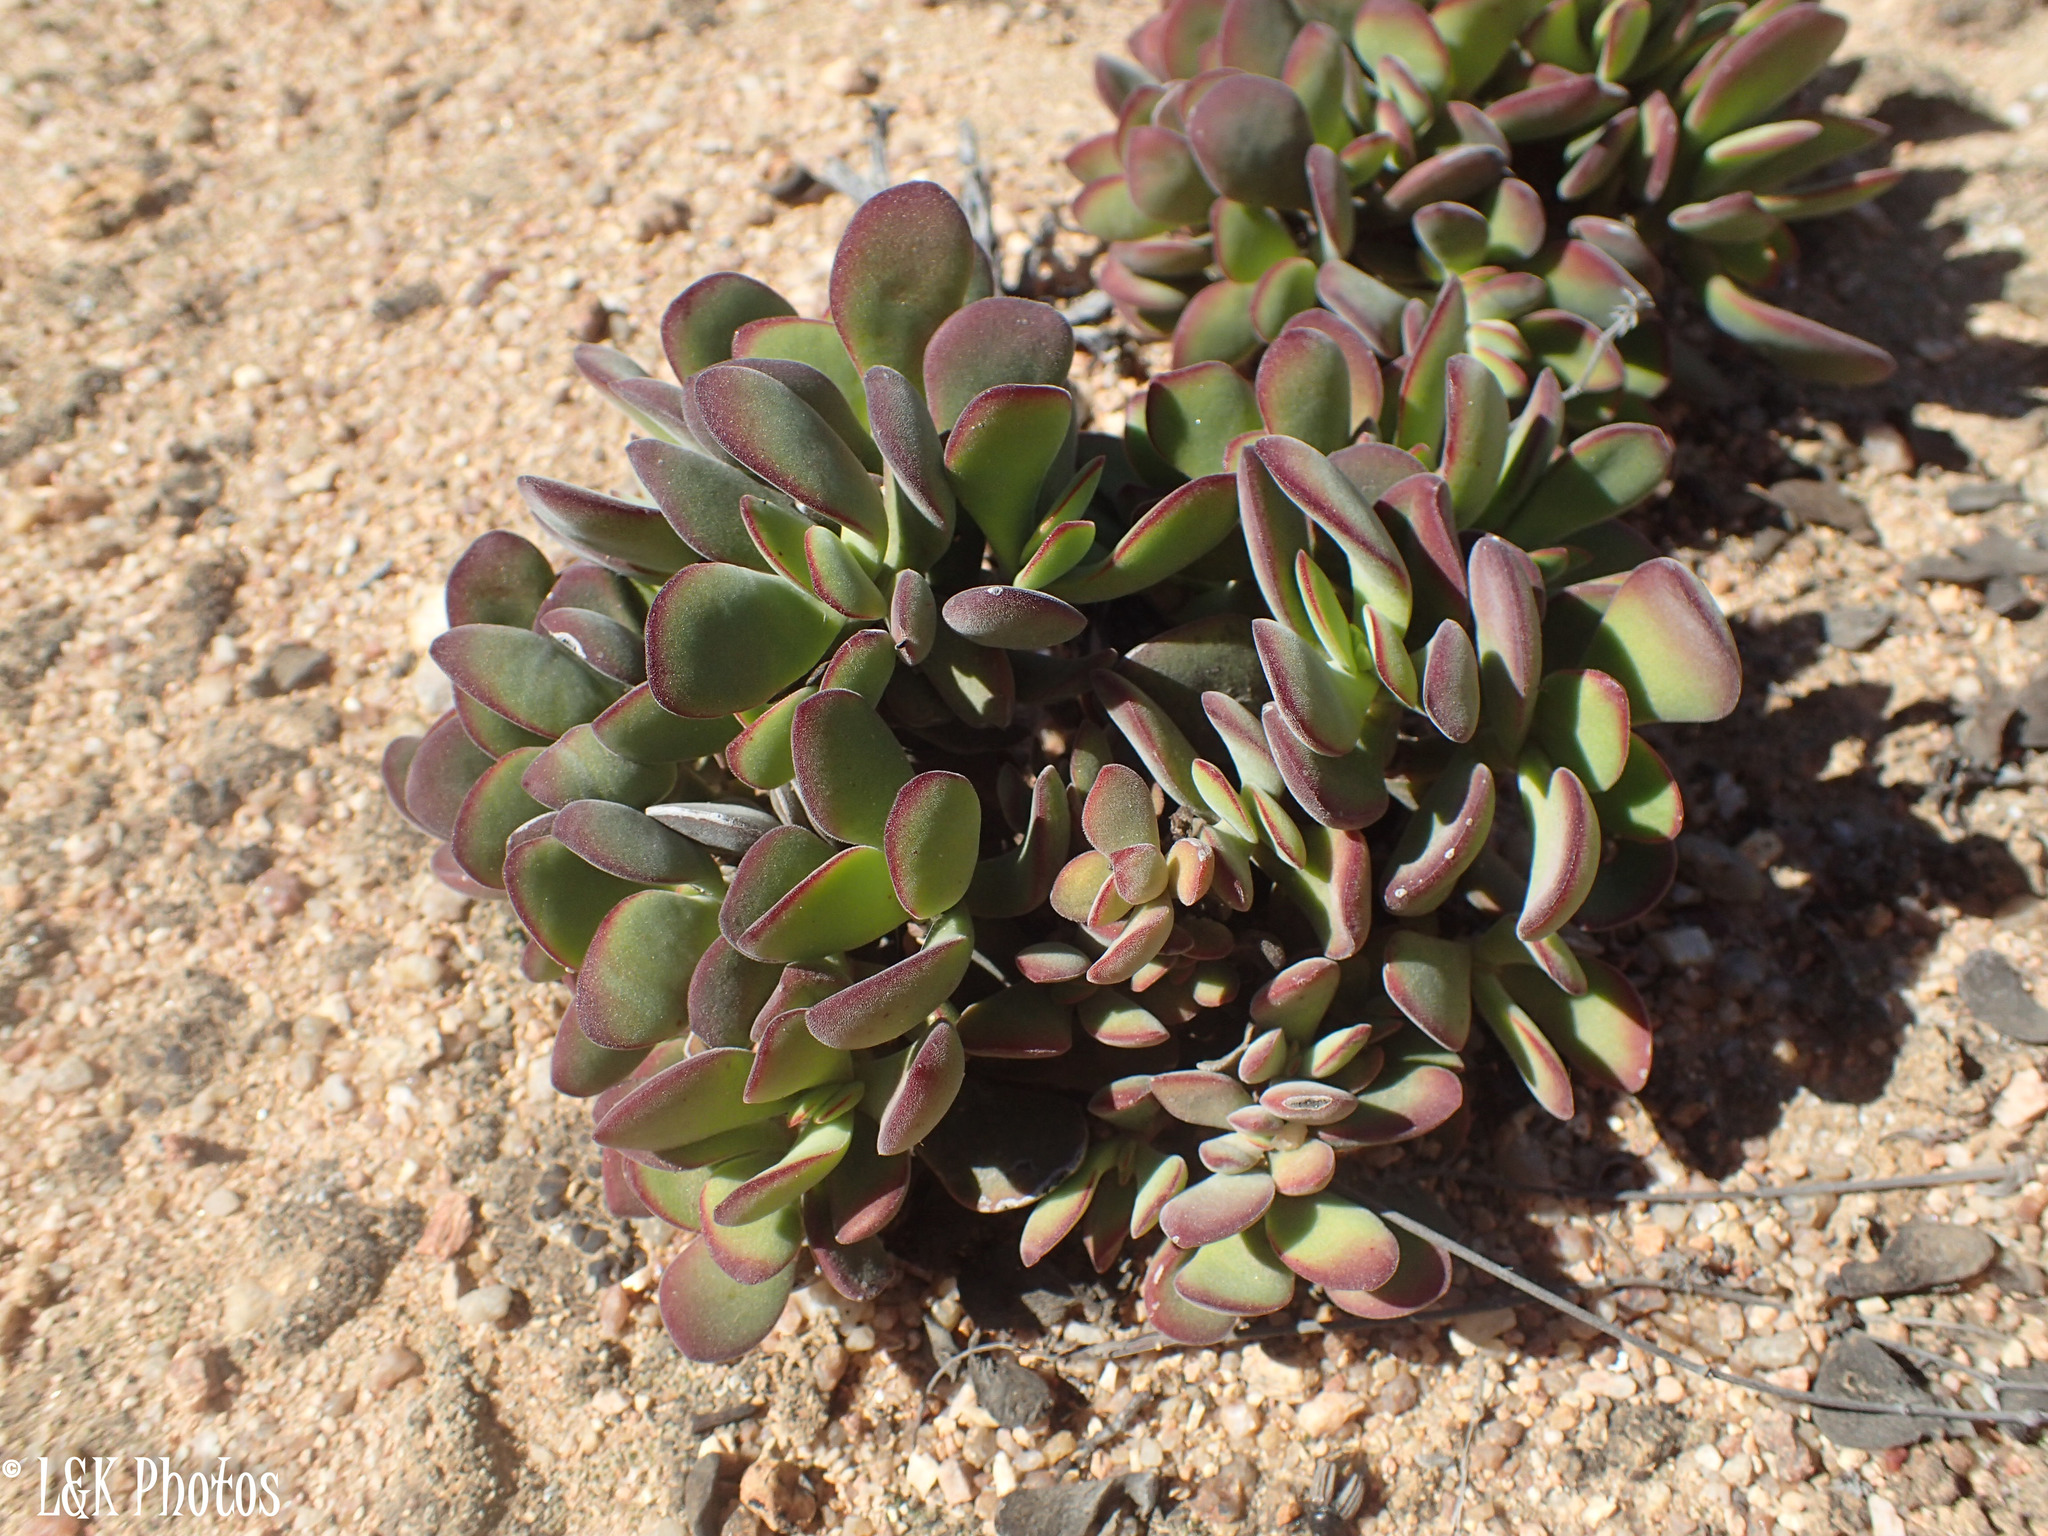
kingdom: Plantae
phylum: Tracheophyta
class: Magnoliopsida
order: Saxifragales
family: Crassulaceae
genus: Crassula
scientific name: Crassula atropurpurea
